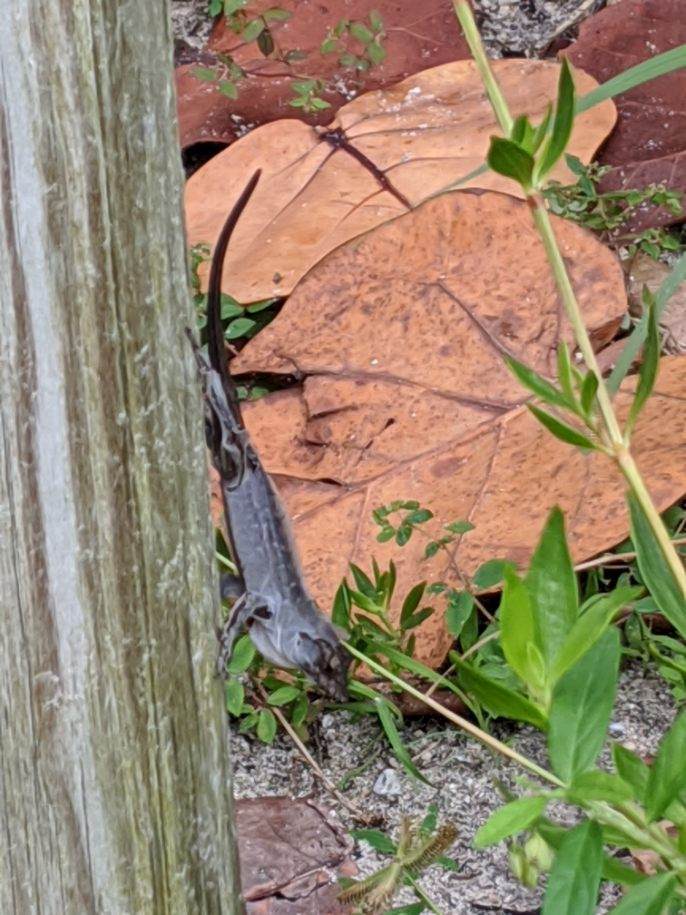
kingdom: Animalia
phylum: Chordata
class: Squamata
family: Dactyloidae
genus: Anolis
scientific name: Anolis sagrei
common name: Brown anole
